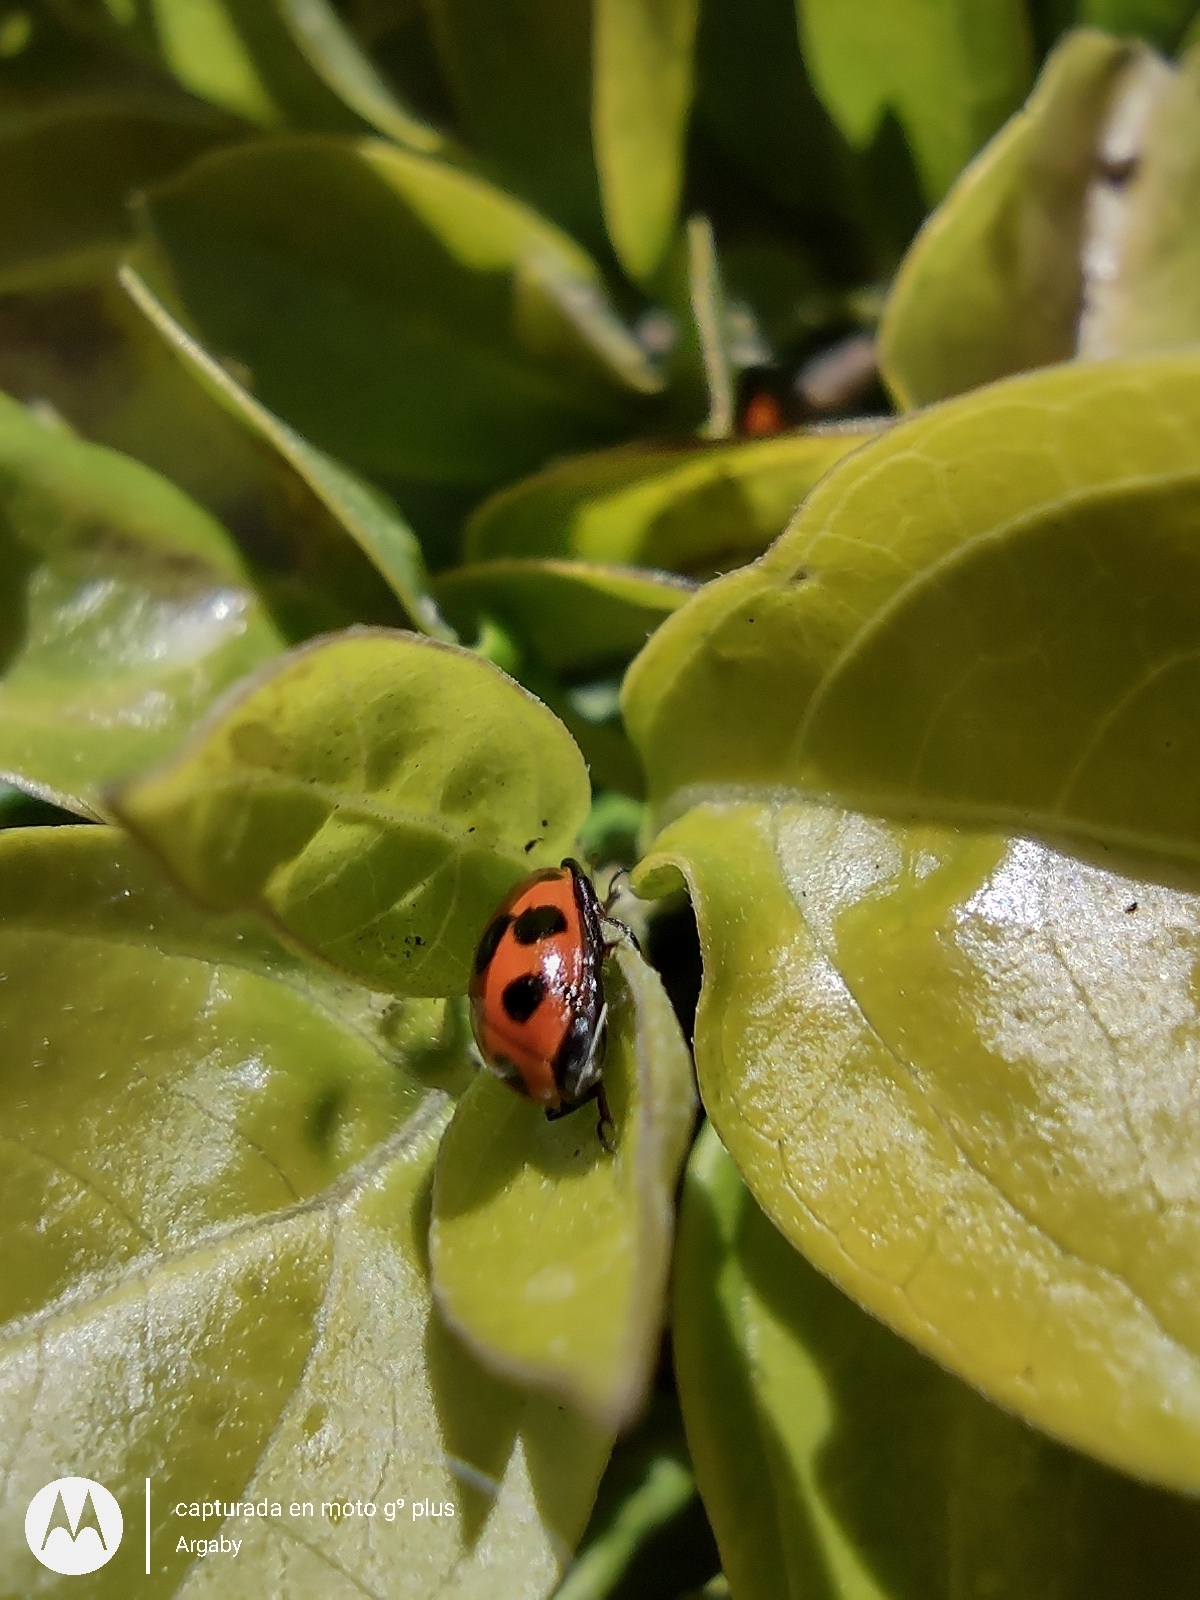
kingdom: Animalia
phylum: Arthropoda
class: Insecta
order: Coleoptera
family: Coccinellidae
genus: Hippodamia
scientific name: Hippodamia variegata
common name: Ladybird beetle
